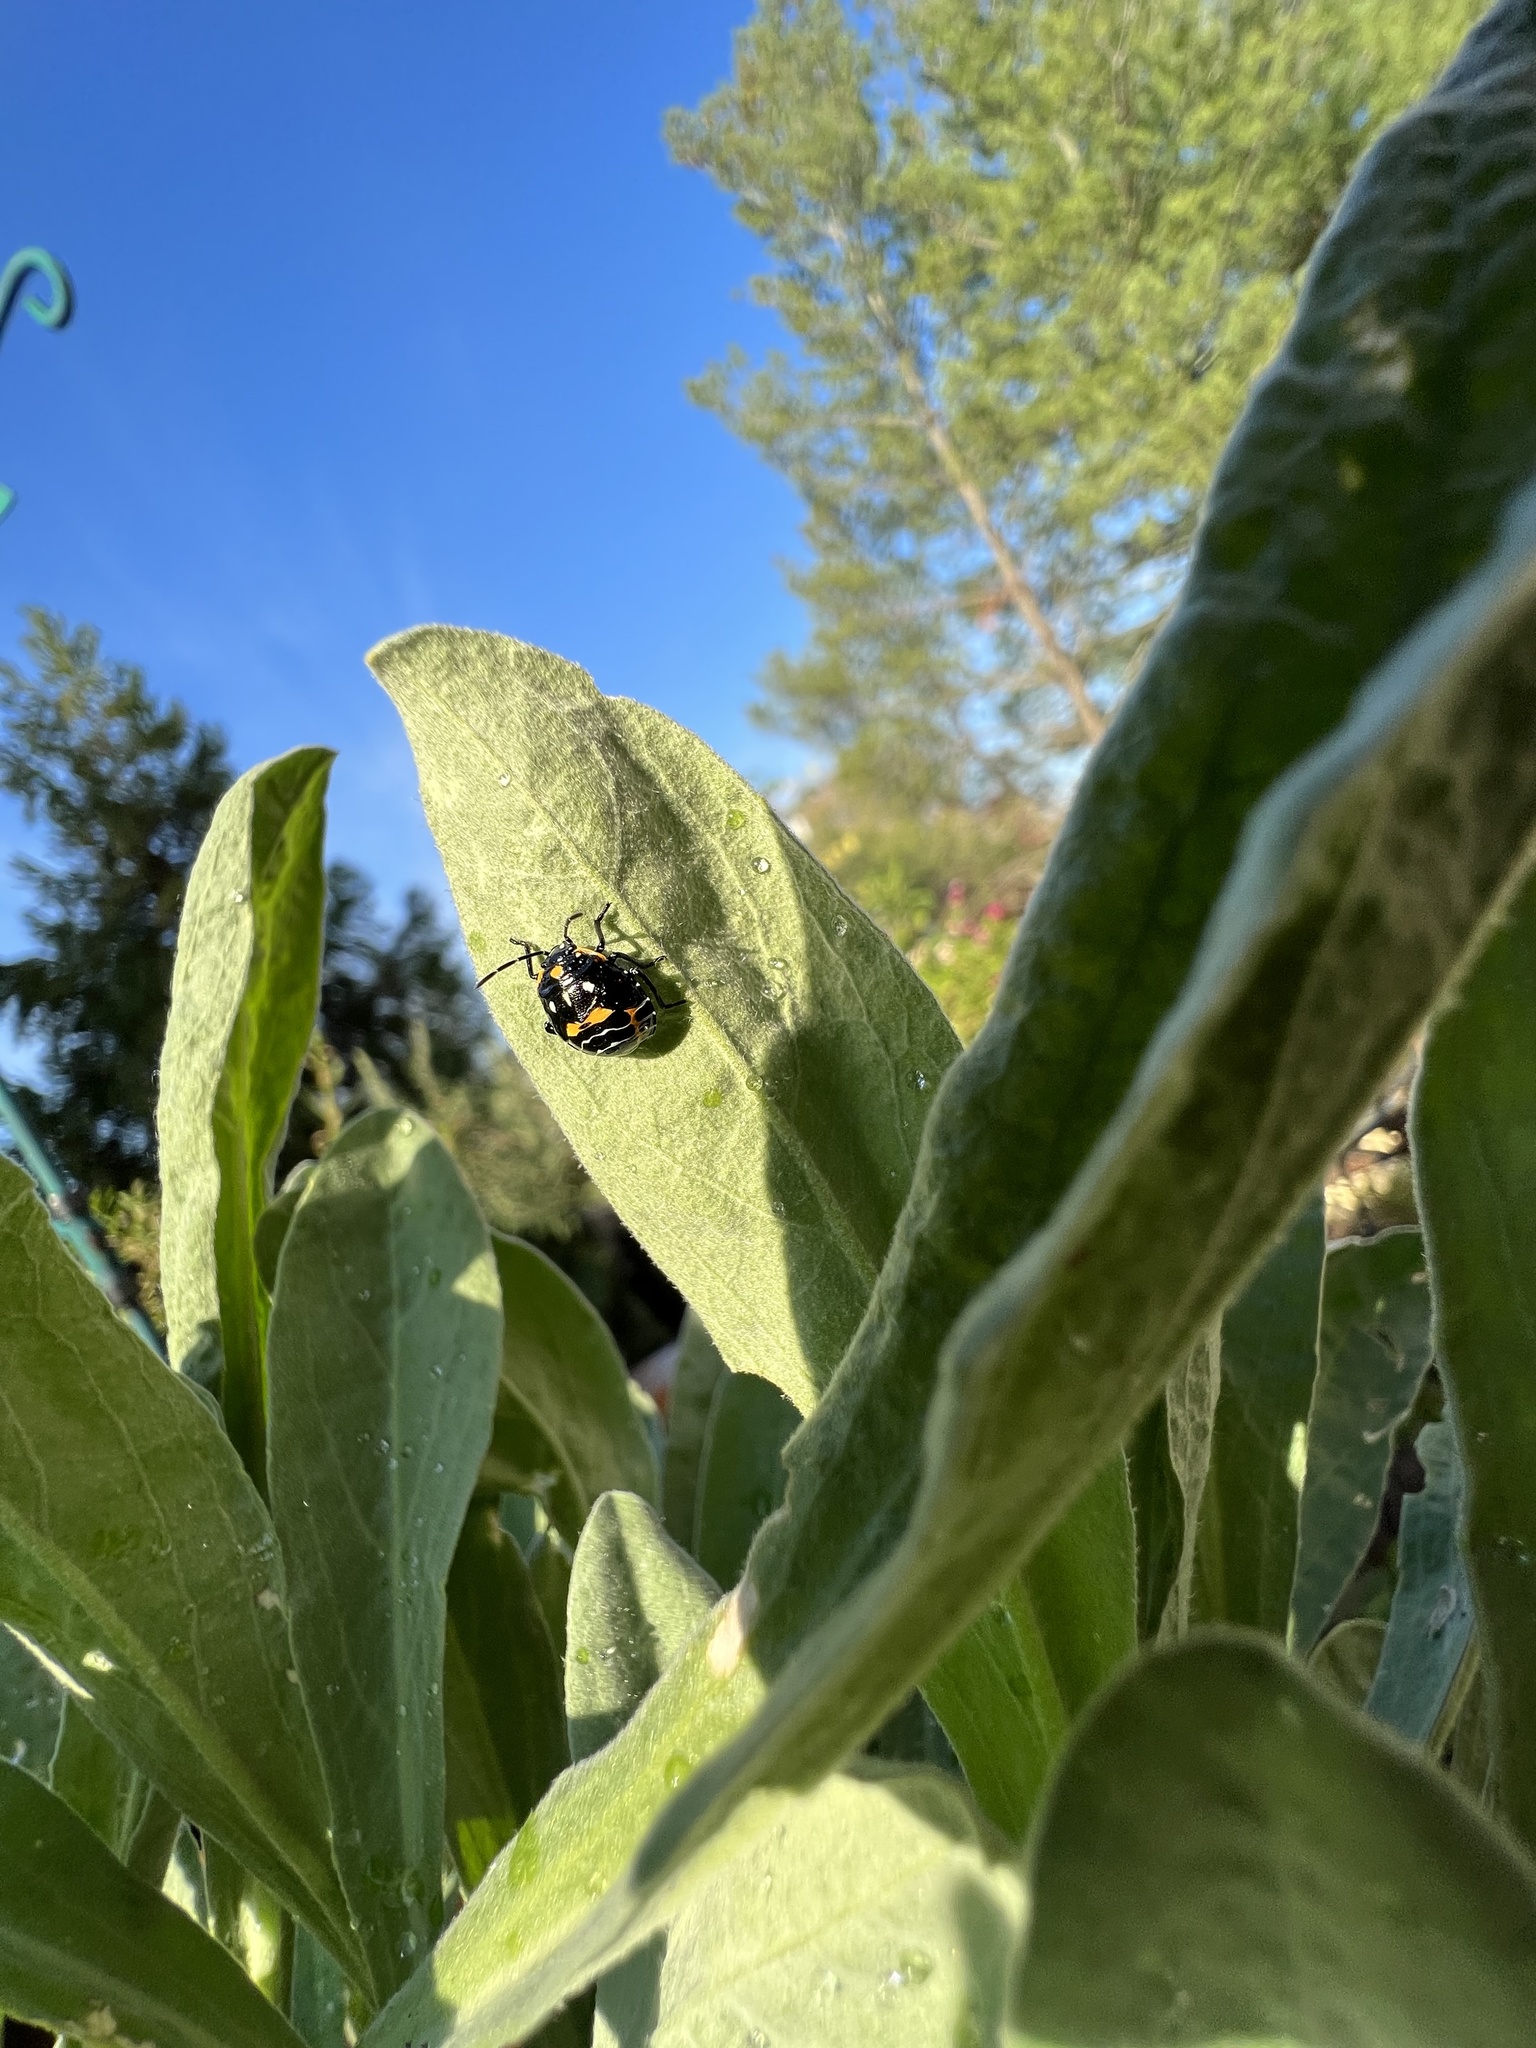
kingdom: Animalia
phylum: Arthropoda
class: Insecta
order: Hemiptera
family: Pentatomidae
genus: Murgantia
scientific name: Murgantia histrionica
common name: Harlequin bug
